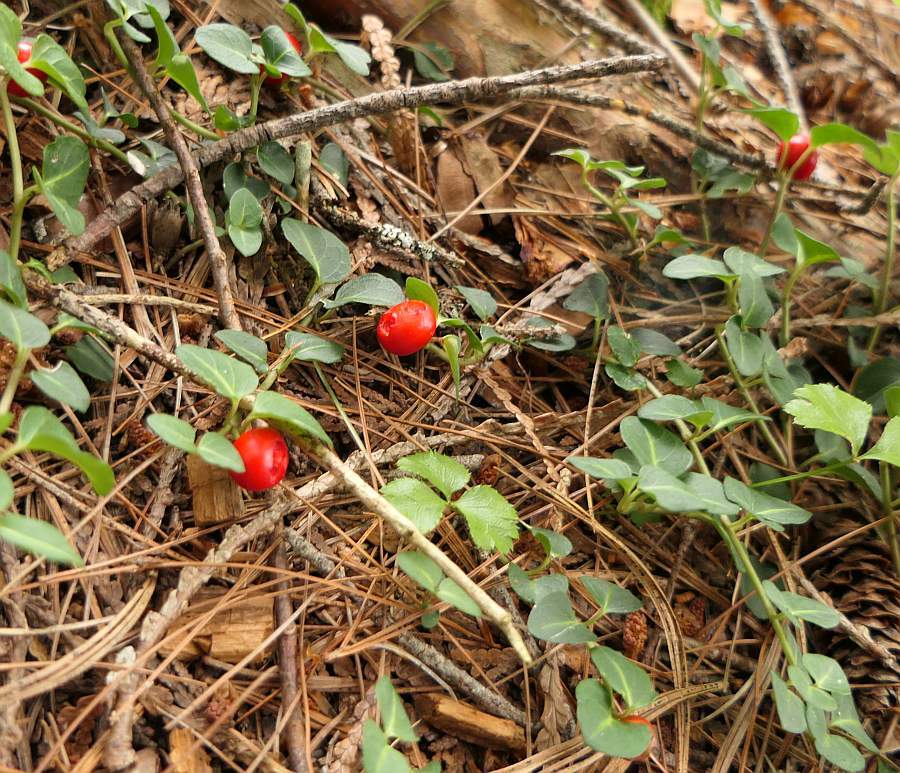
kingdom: Plantae
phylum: Tracheophyta
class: Magnoliopsida
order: Gentianales
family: Rubiaceae
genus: Mitchella
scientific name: Mitchella repens
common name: Partridge-berry
